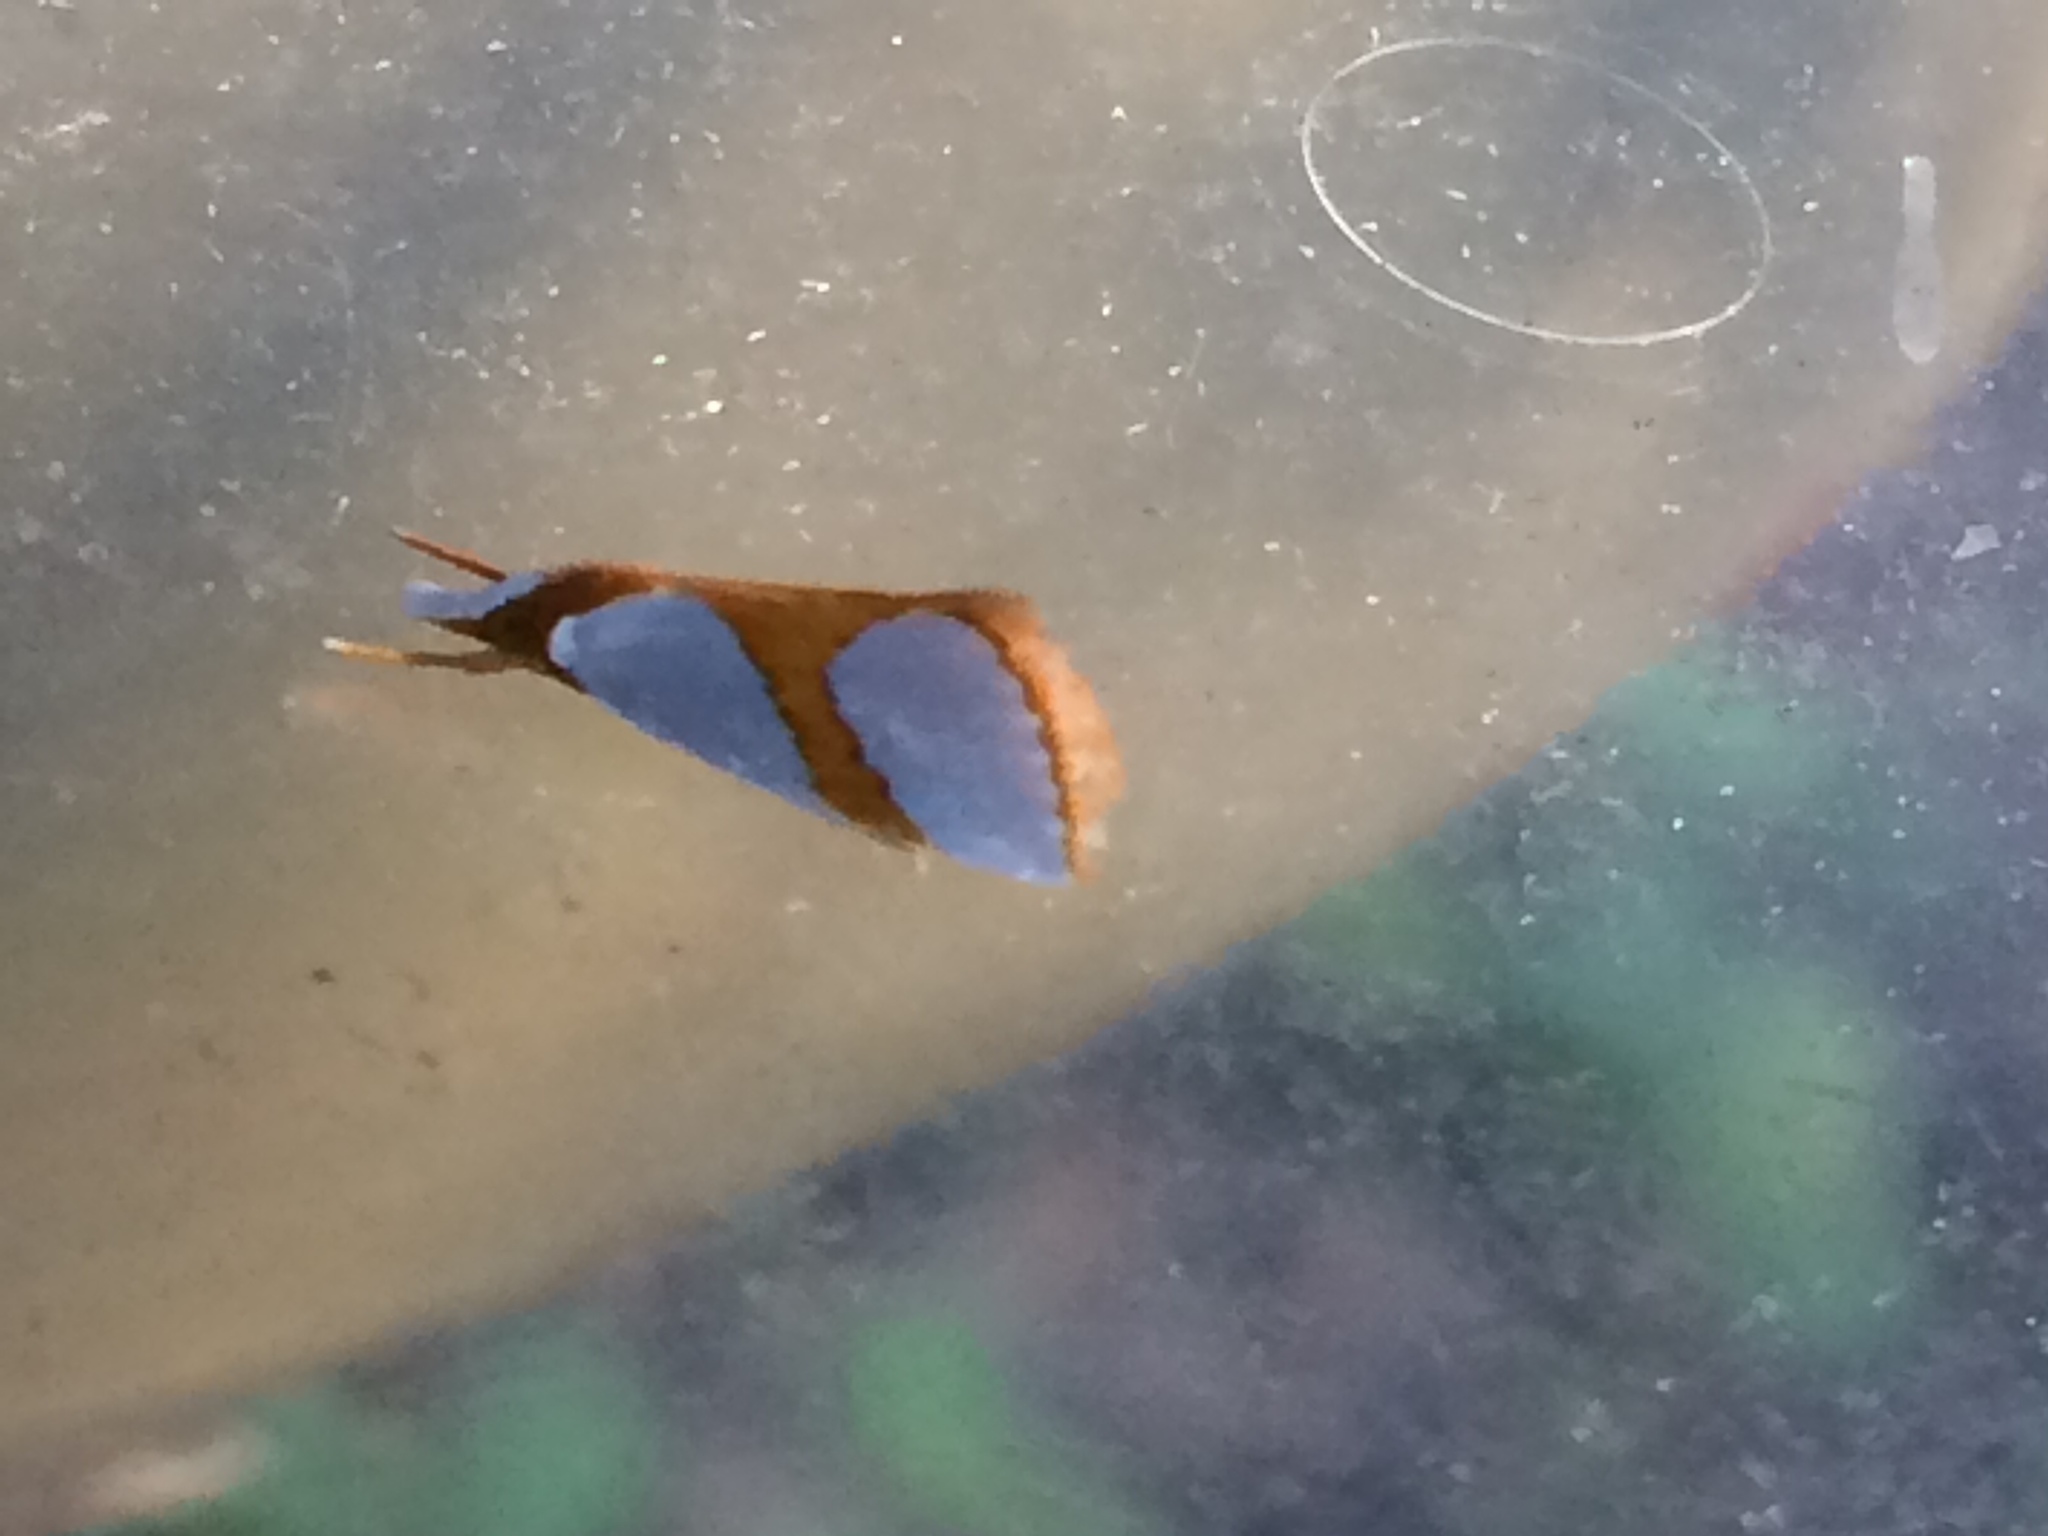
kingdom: Animalia
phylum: Arthropoda
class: Insecta
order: Lepidoptera
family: Crambidae
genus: Argyria
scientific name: Argyria auratella
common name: Curve-lined argyria moth
